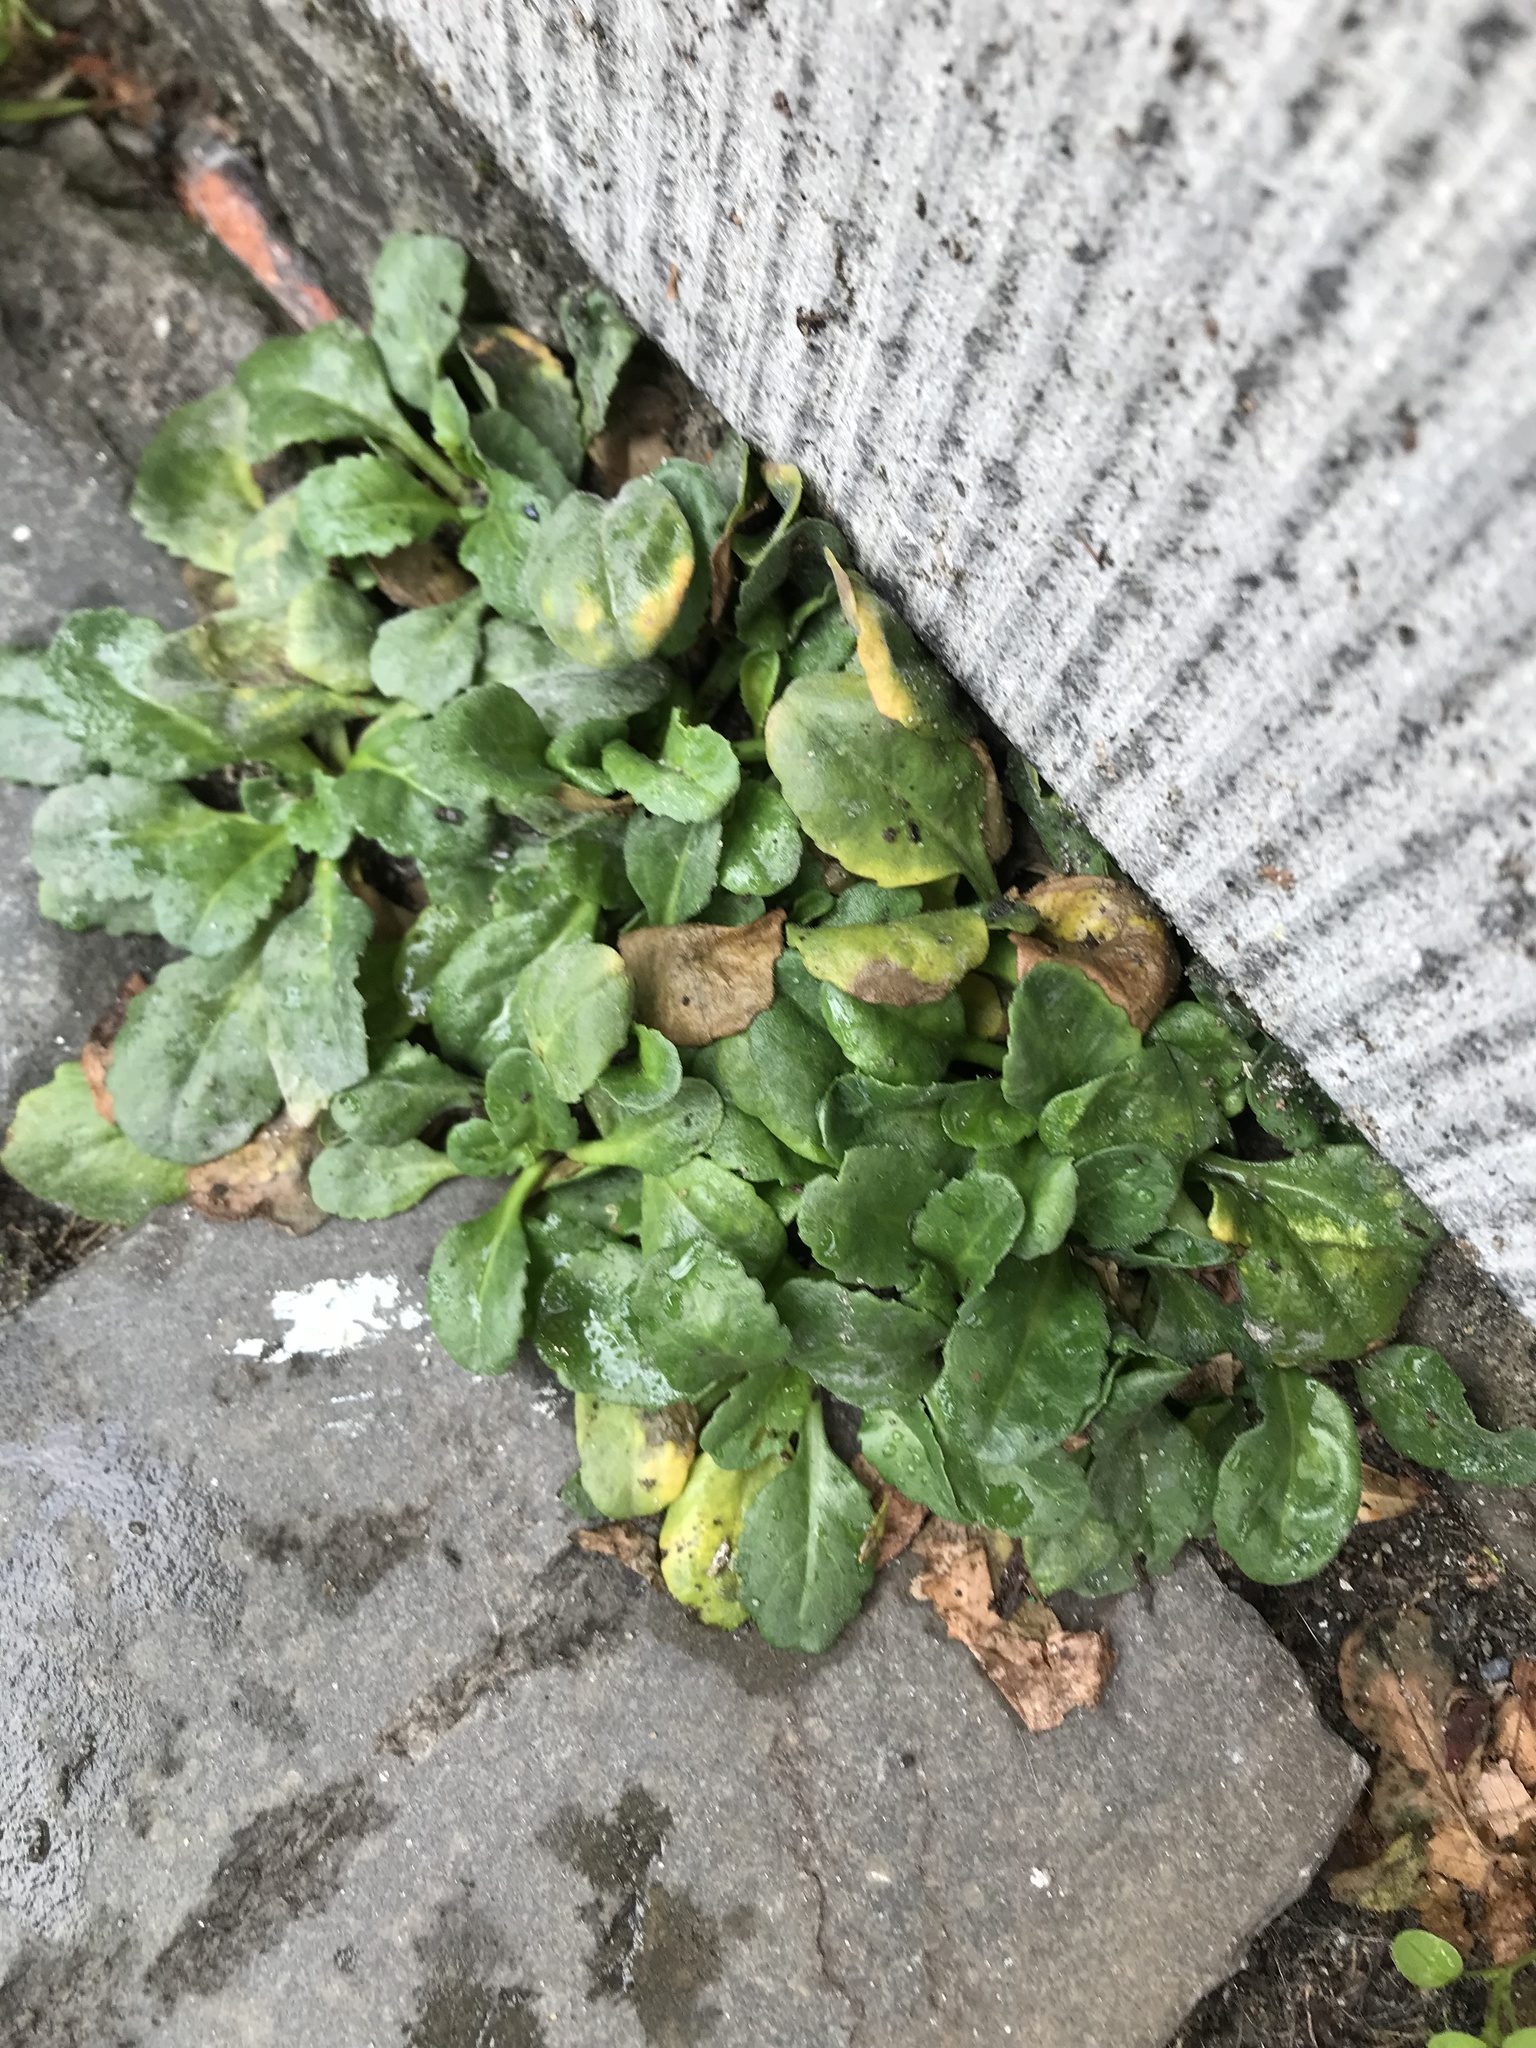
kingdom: Plantae
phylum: Tracheophyta
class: Magnoliopsida
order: Asterales
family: Asteraceae
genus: Bellis
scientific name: Bellis perennis
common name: Lawndaisy
